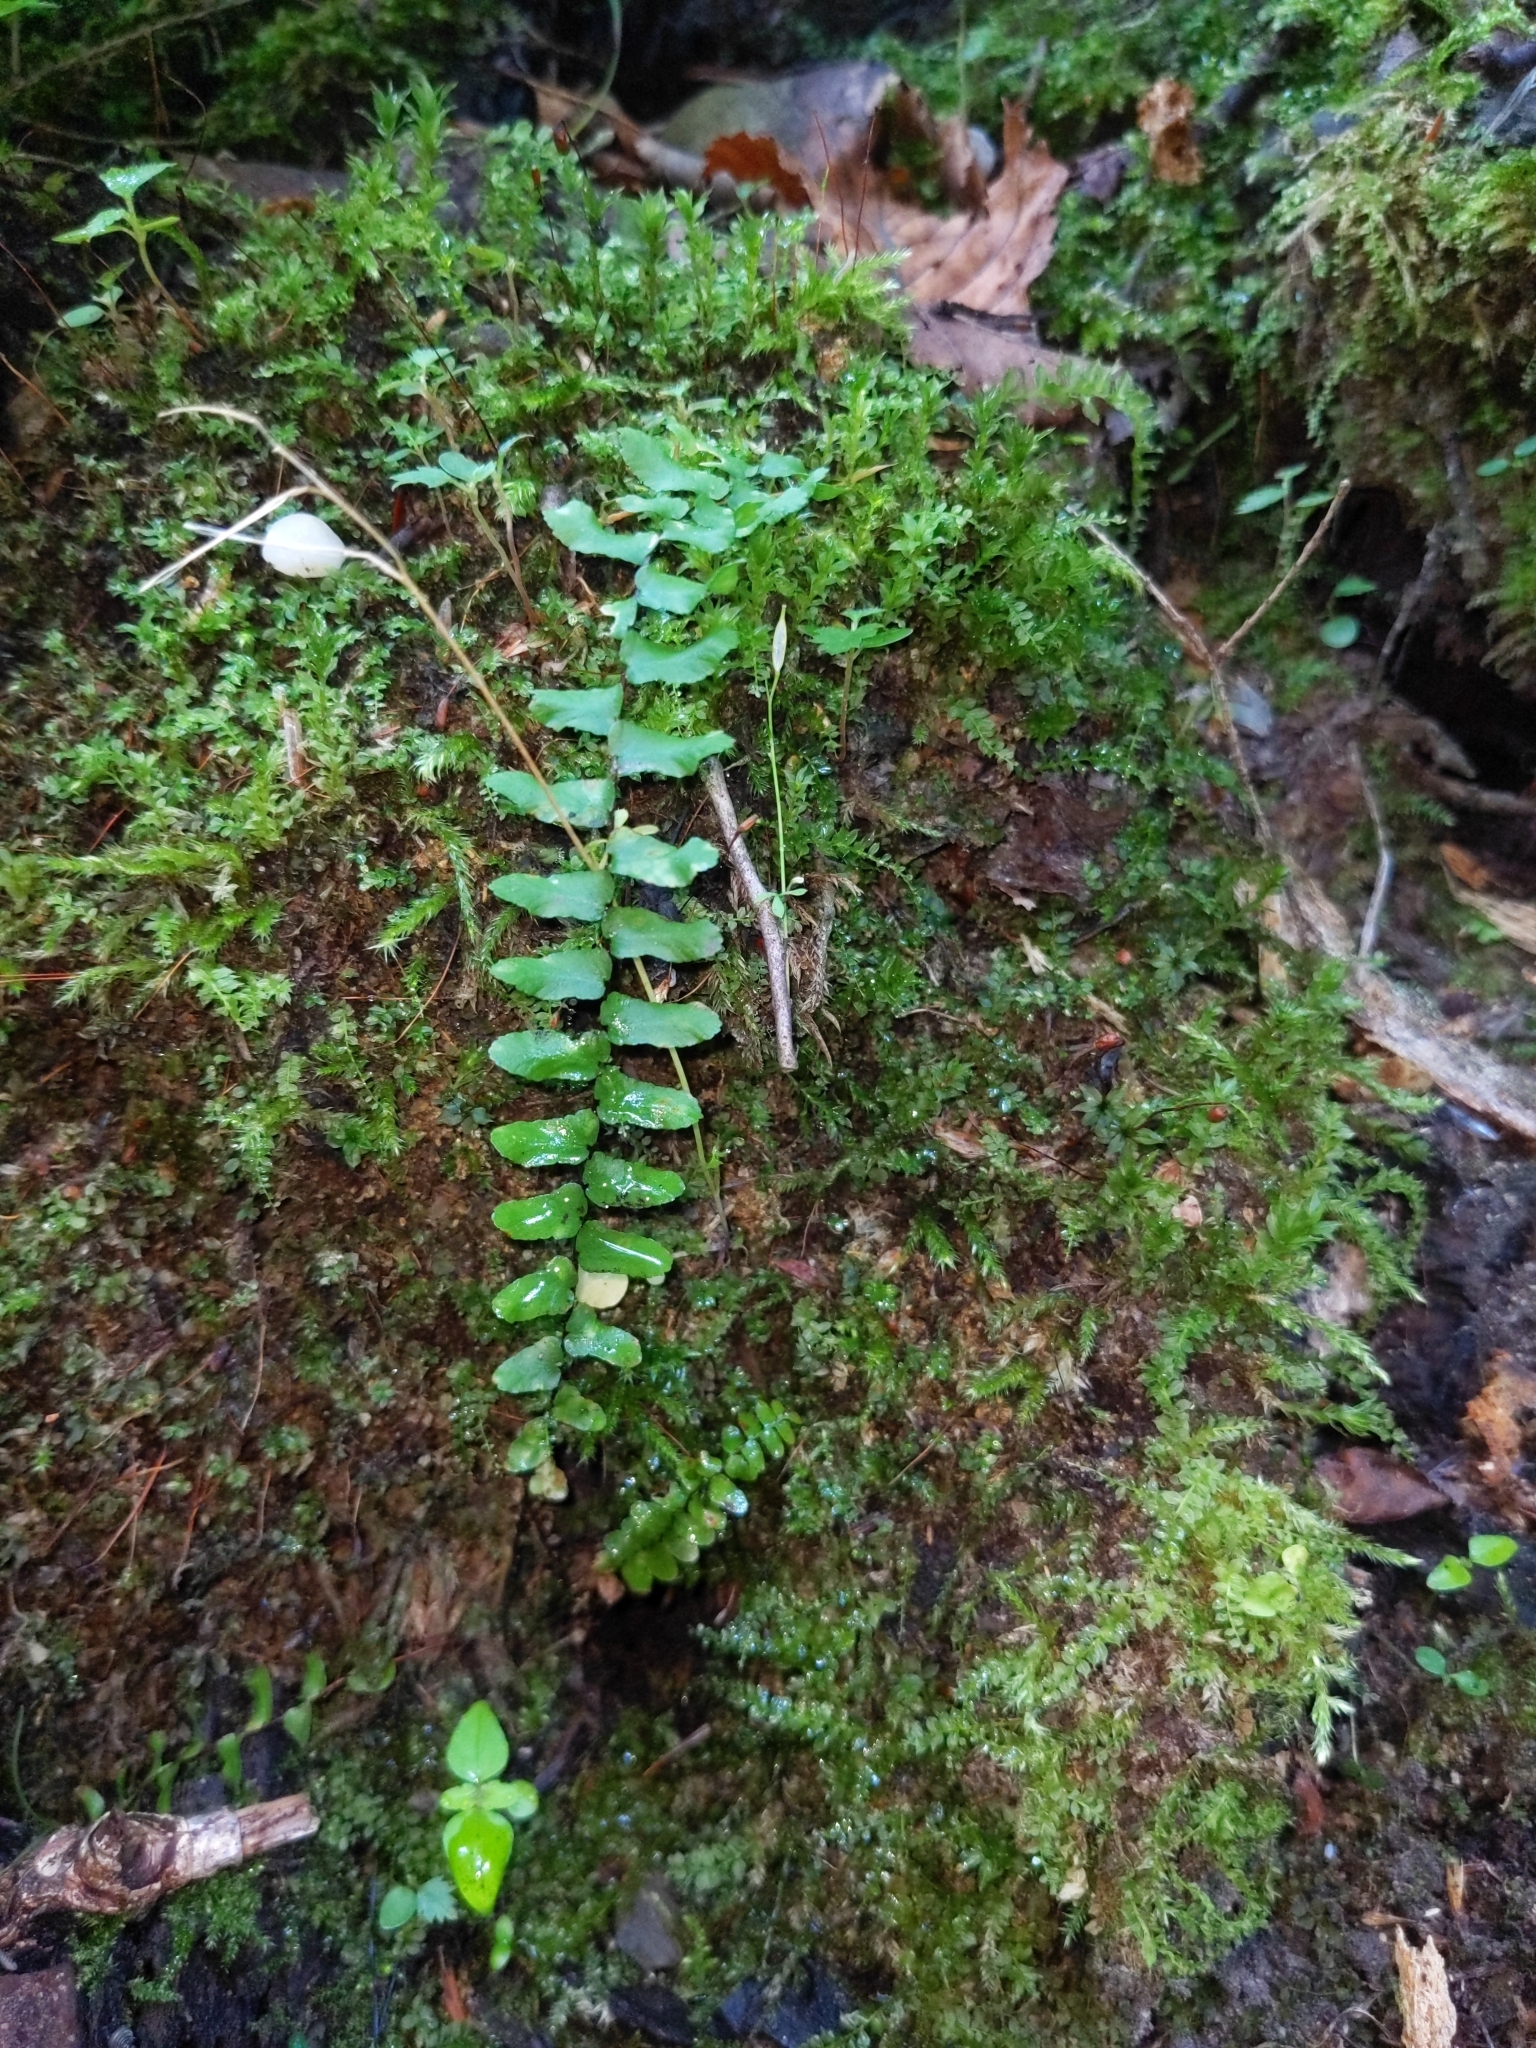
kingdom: Plantae
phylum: Tracheophyta
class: Polypodiopsida
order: Polypodiales
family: Aspleniaceae
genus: Asplenium
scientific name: Asplenium platyneuron
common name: Ebony spleenwort
